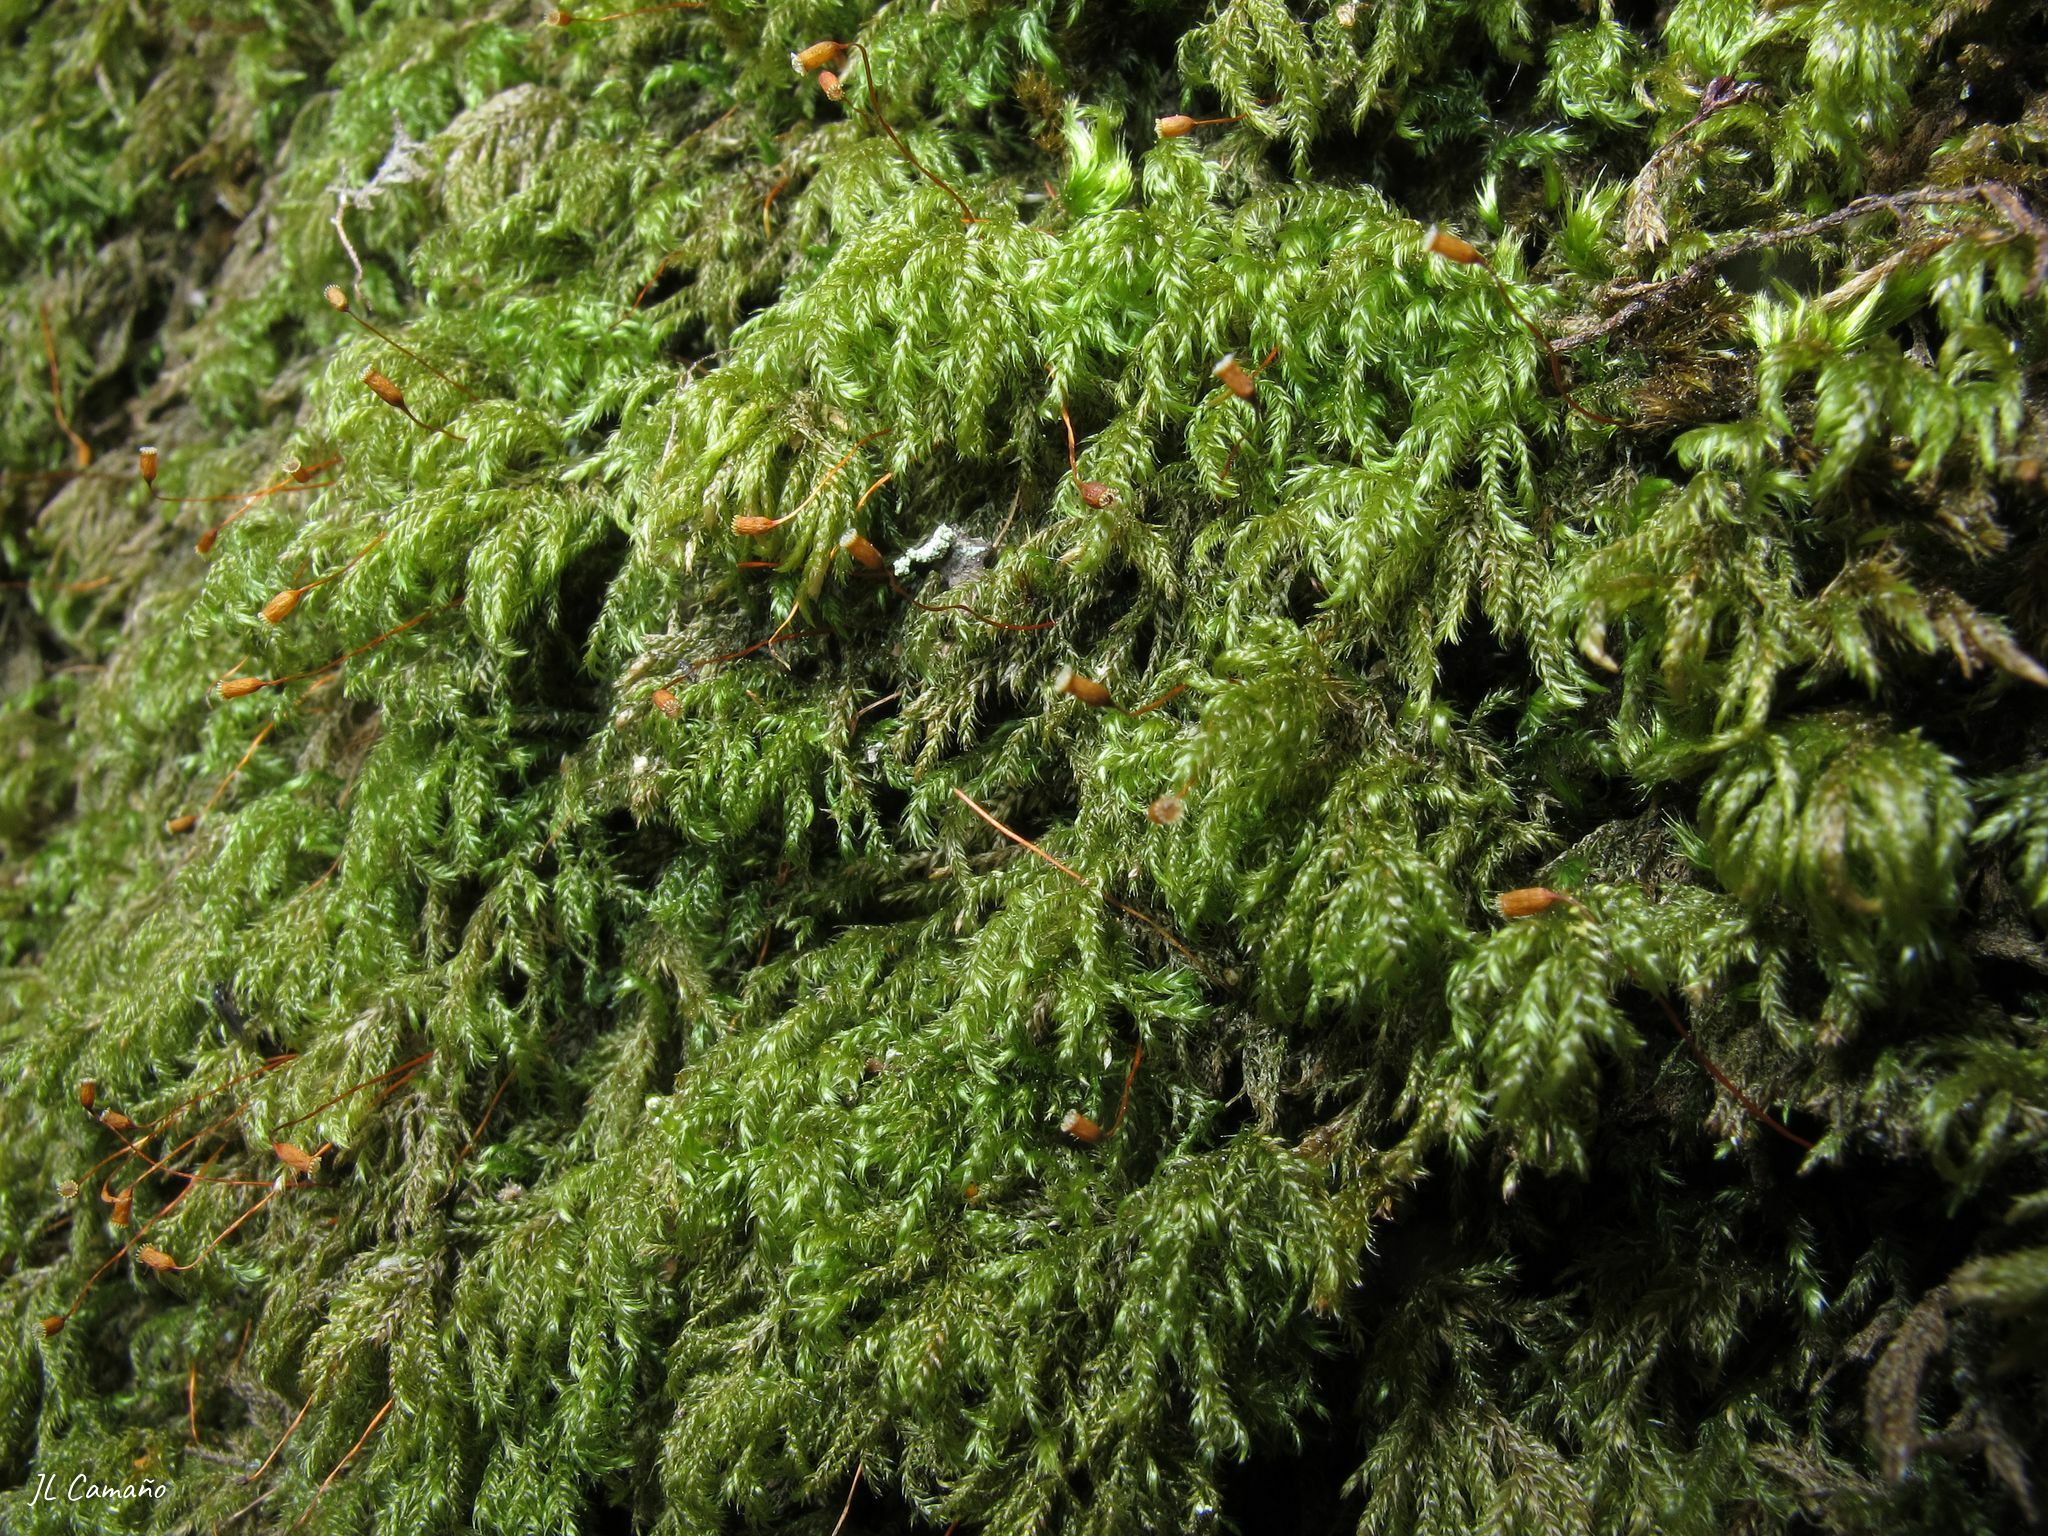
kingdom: Plantae
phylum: Bryophyta
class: Bryopsida
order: Hypnales
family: Lembophyllaceae
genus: Pseudisothecium
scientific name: Pseudisothecium myosuroides
